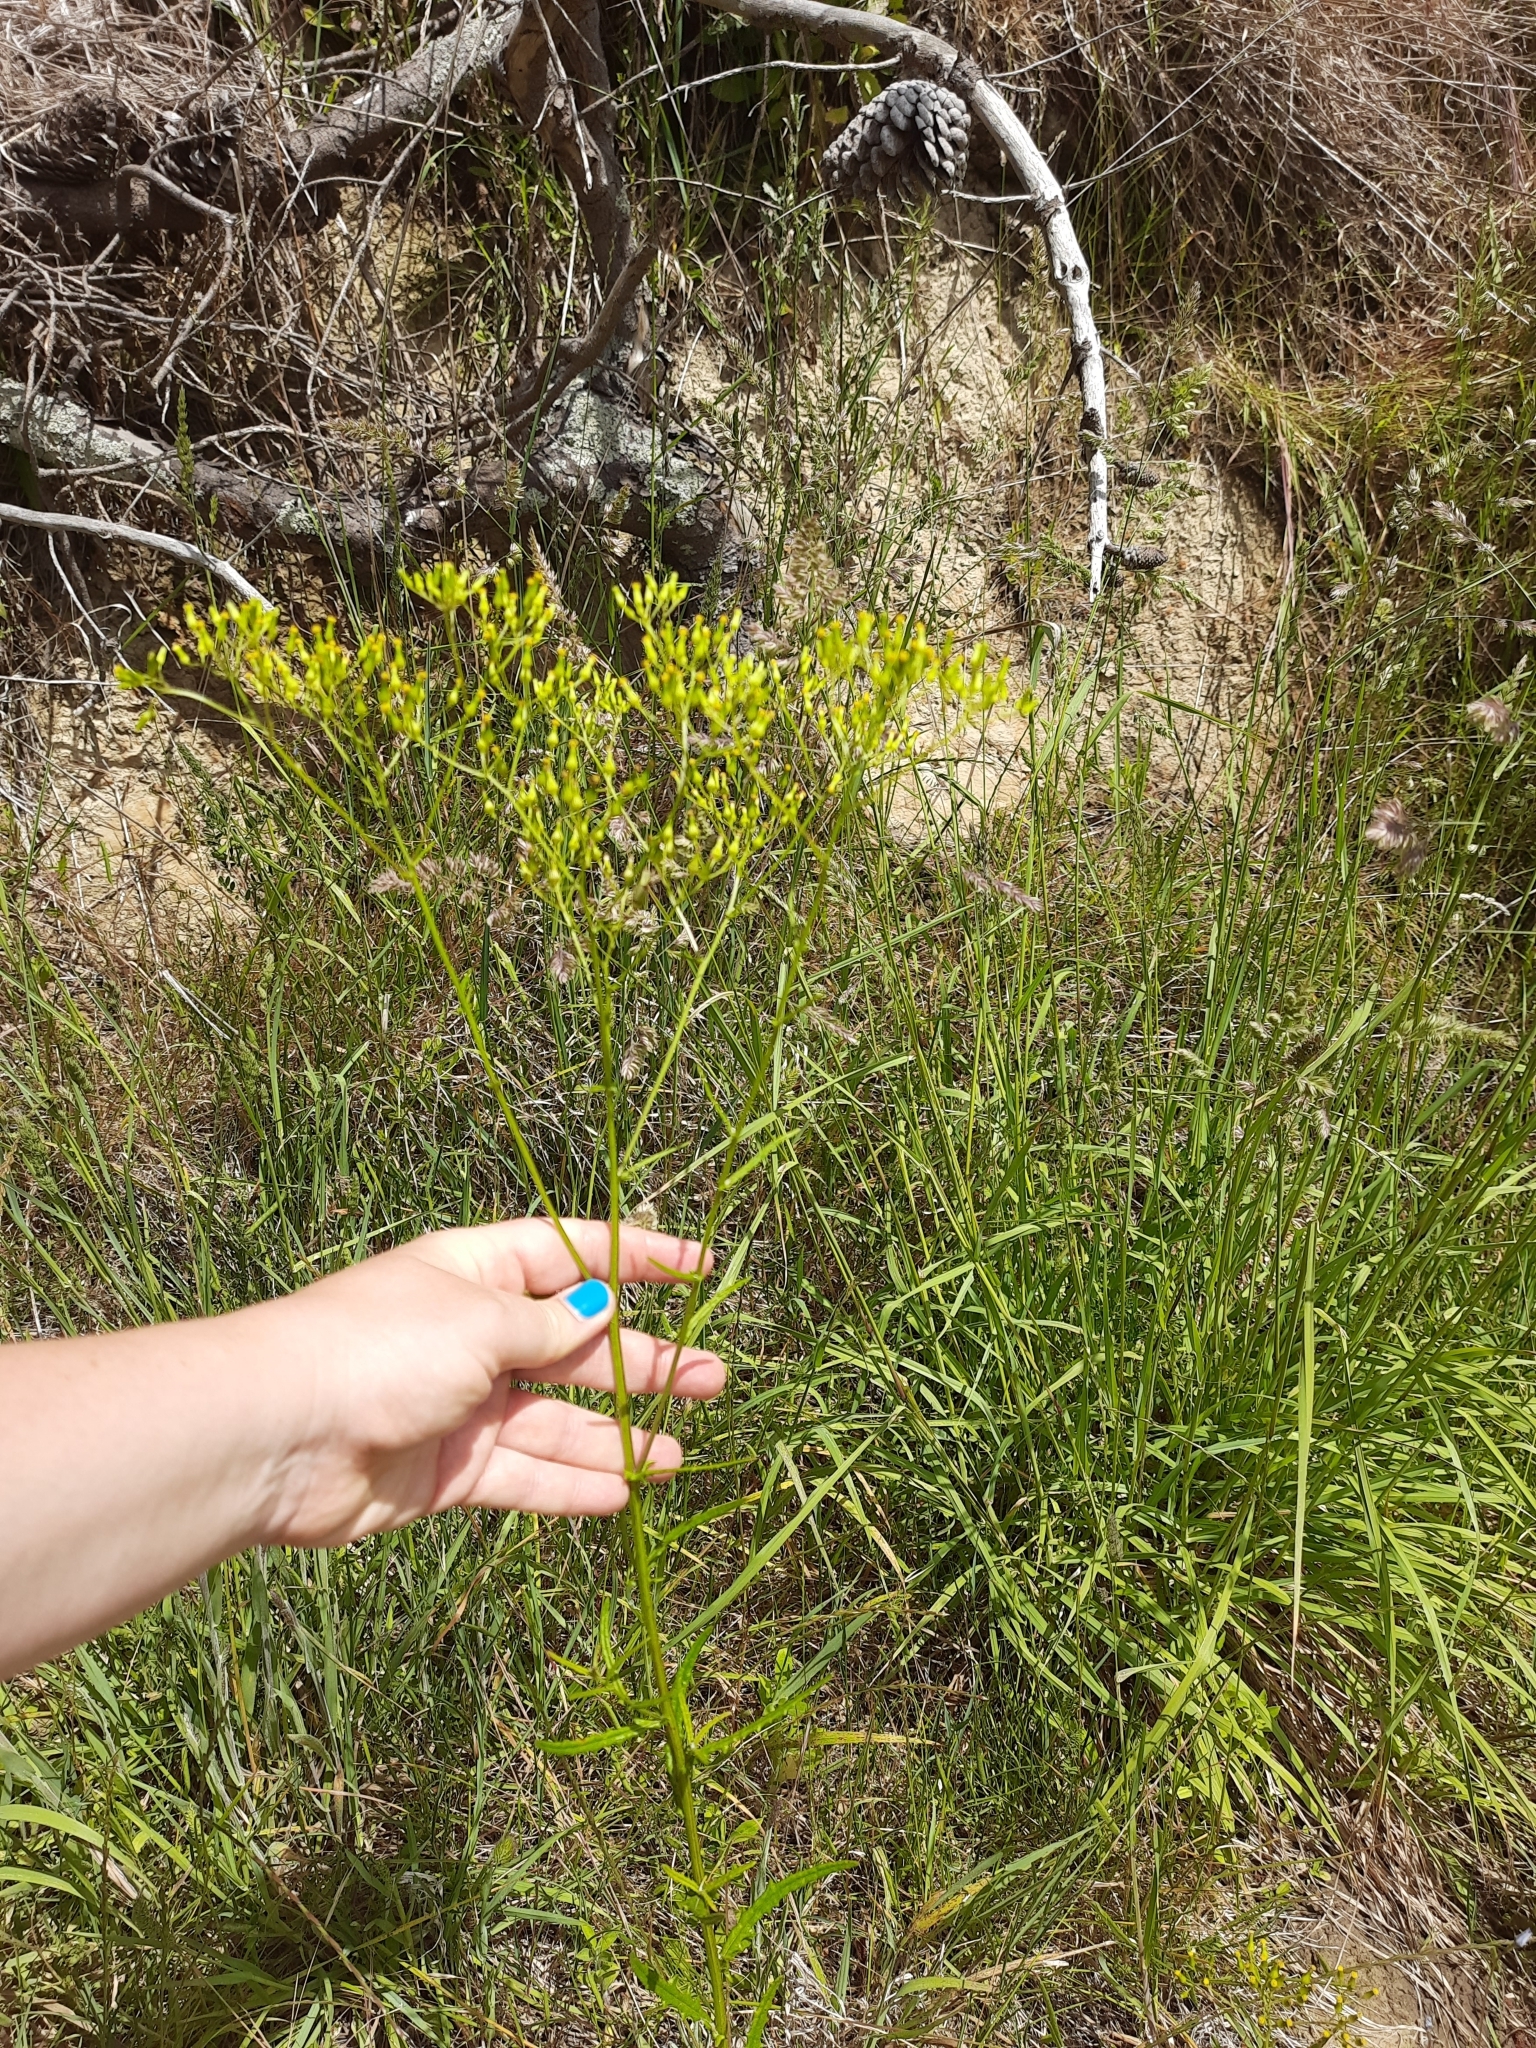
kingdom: Plantae
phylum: Tracheophyta
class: Magnoliopsida
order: Asterales
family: Asteraceae
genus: Senecio
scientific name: Senecio hispidulus
